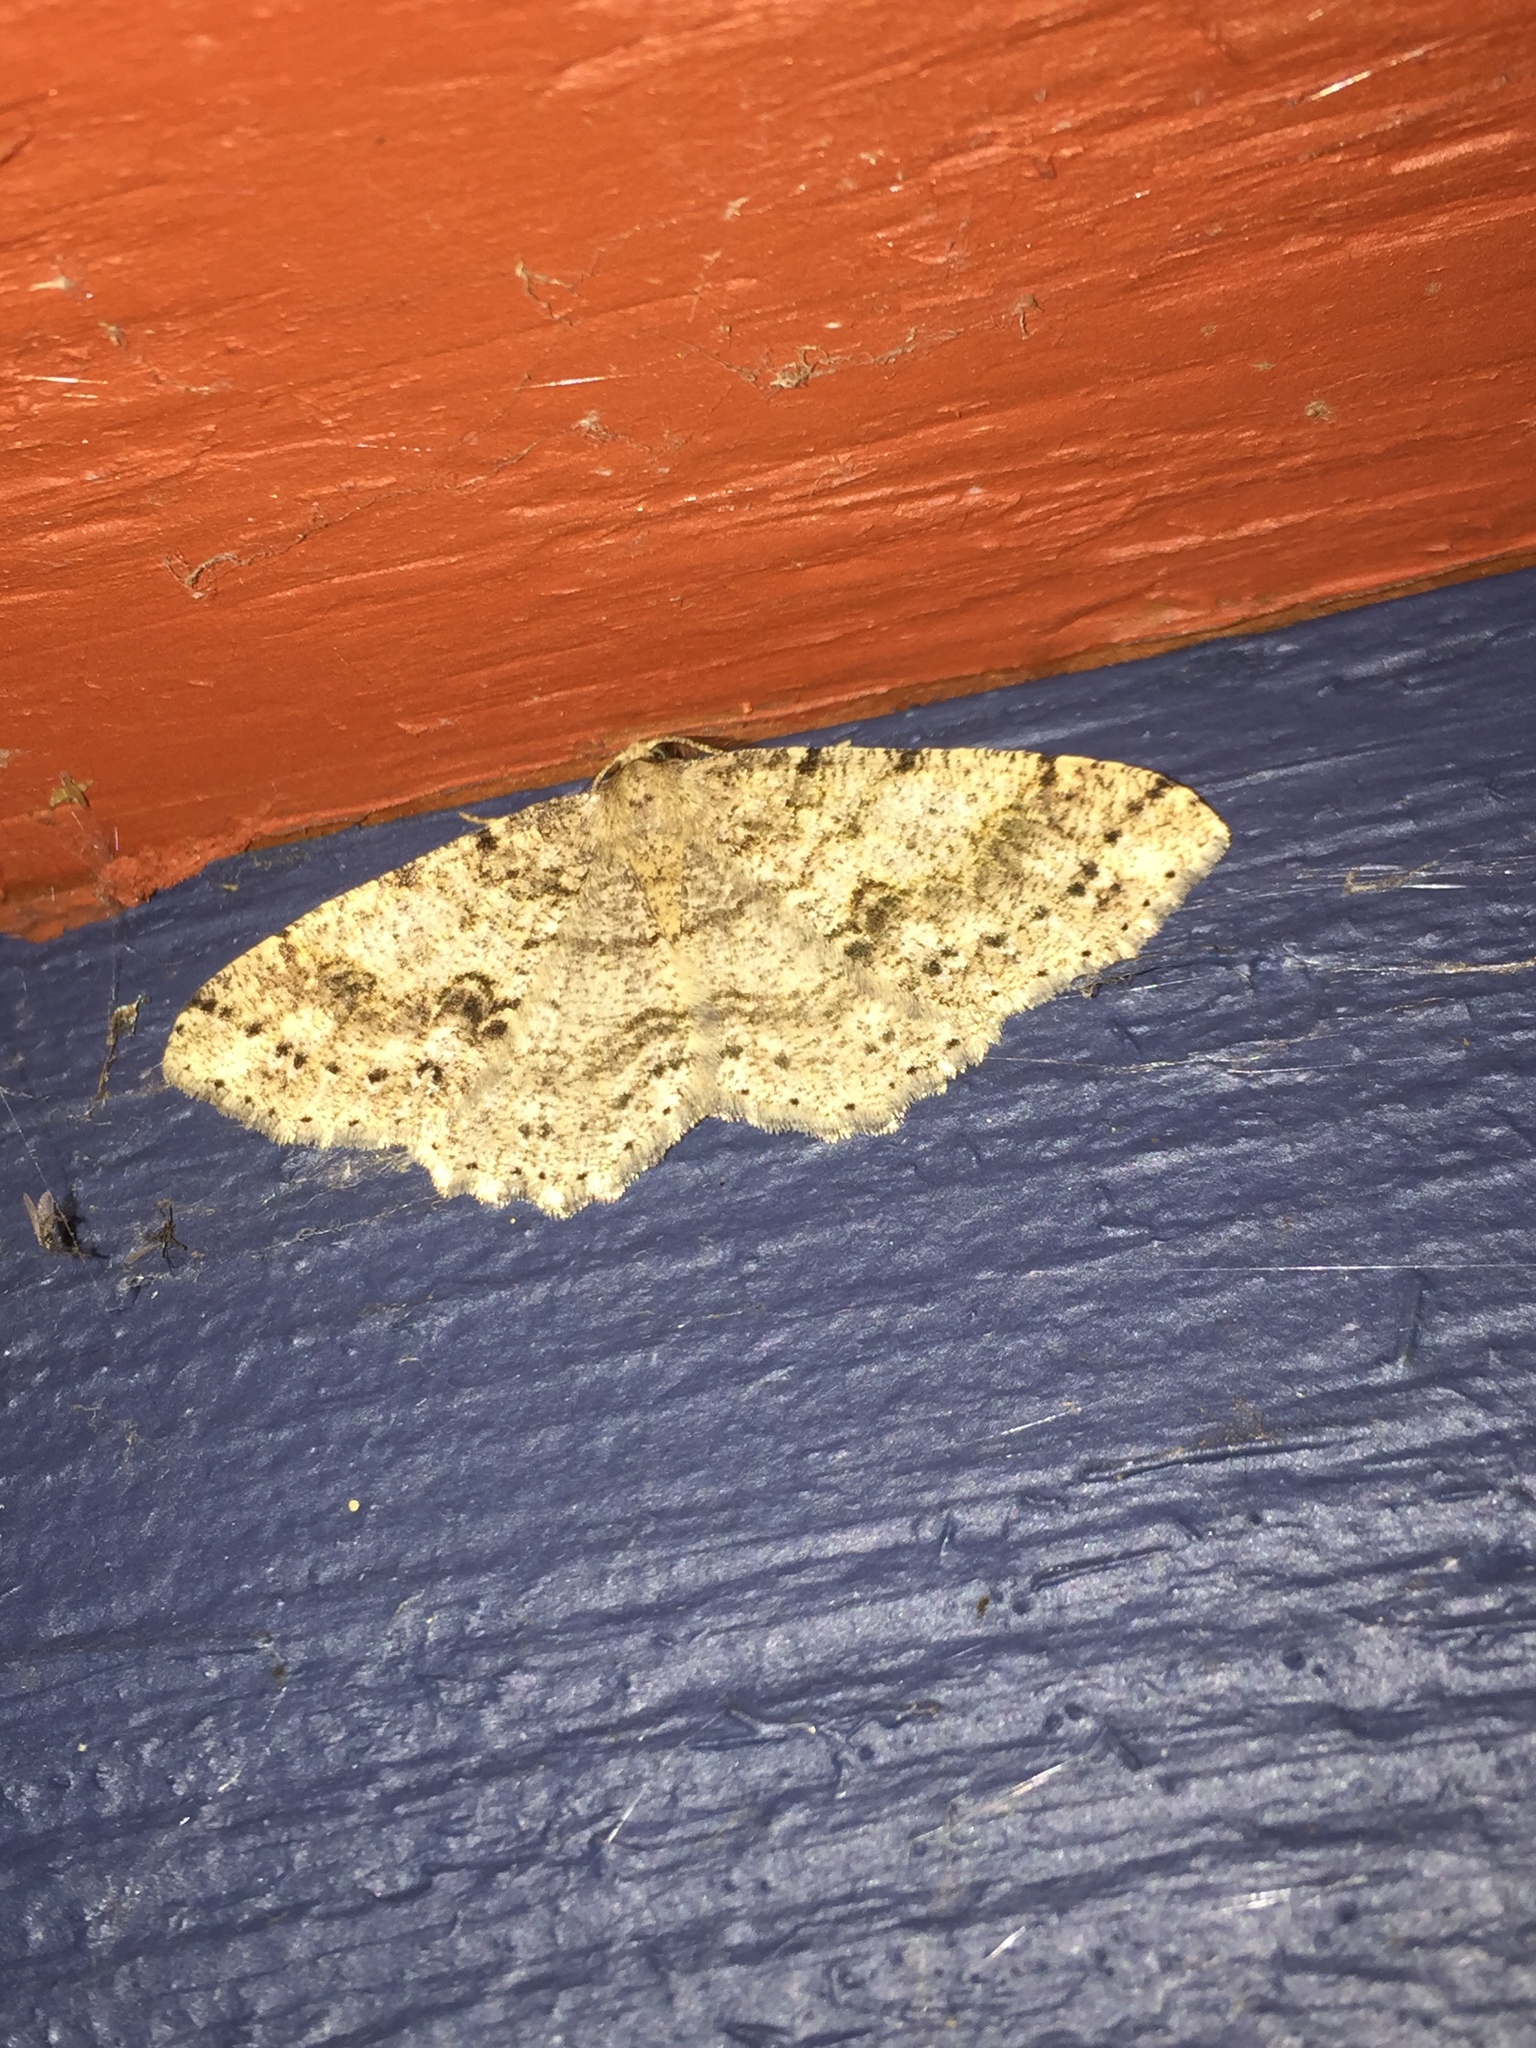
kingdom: Animalia
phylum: Arthropoda
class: Insecta
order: Lepidoptera
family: Geometridae
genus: Melanolophia
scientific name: Melanolophia imitata
